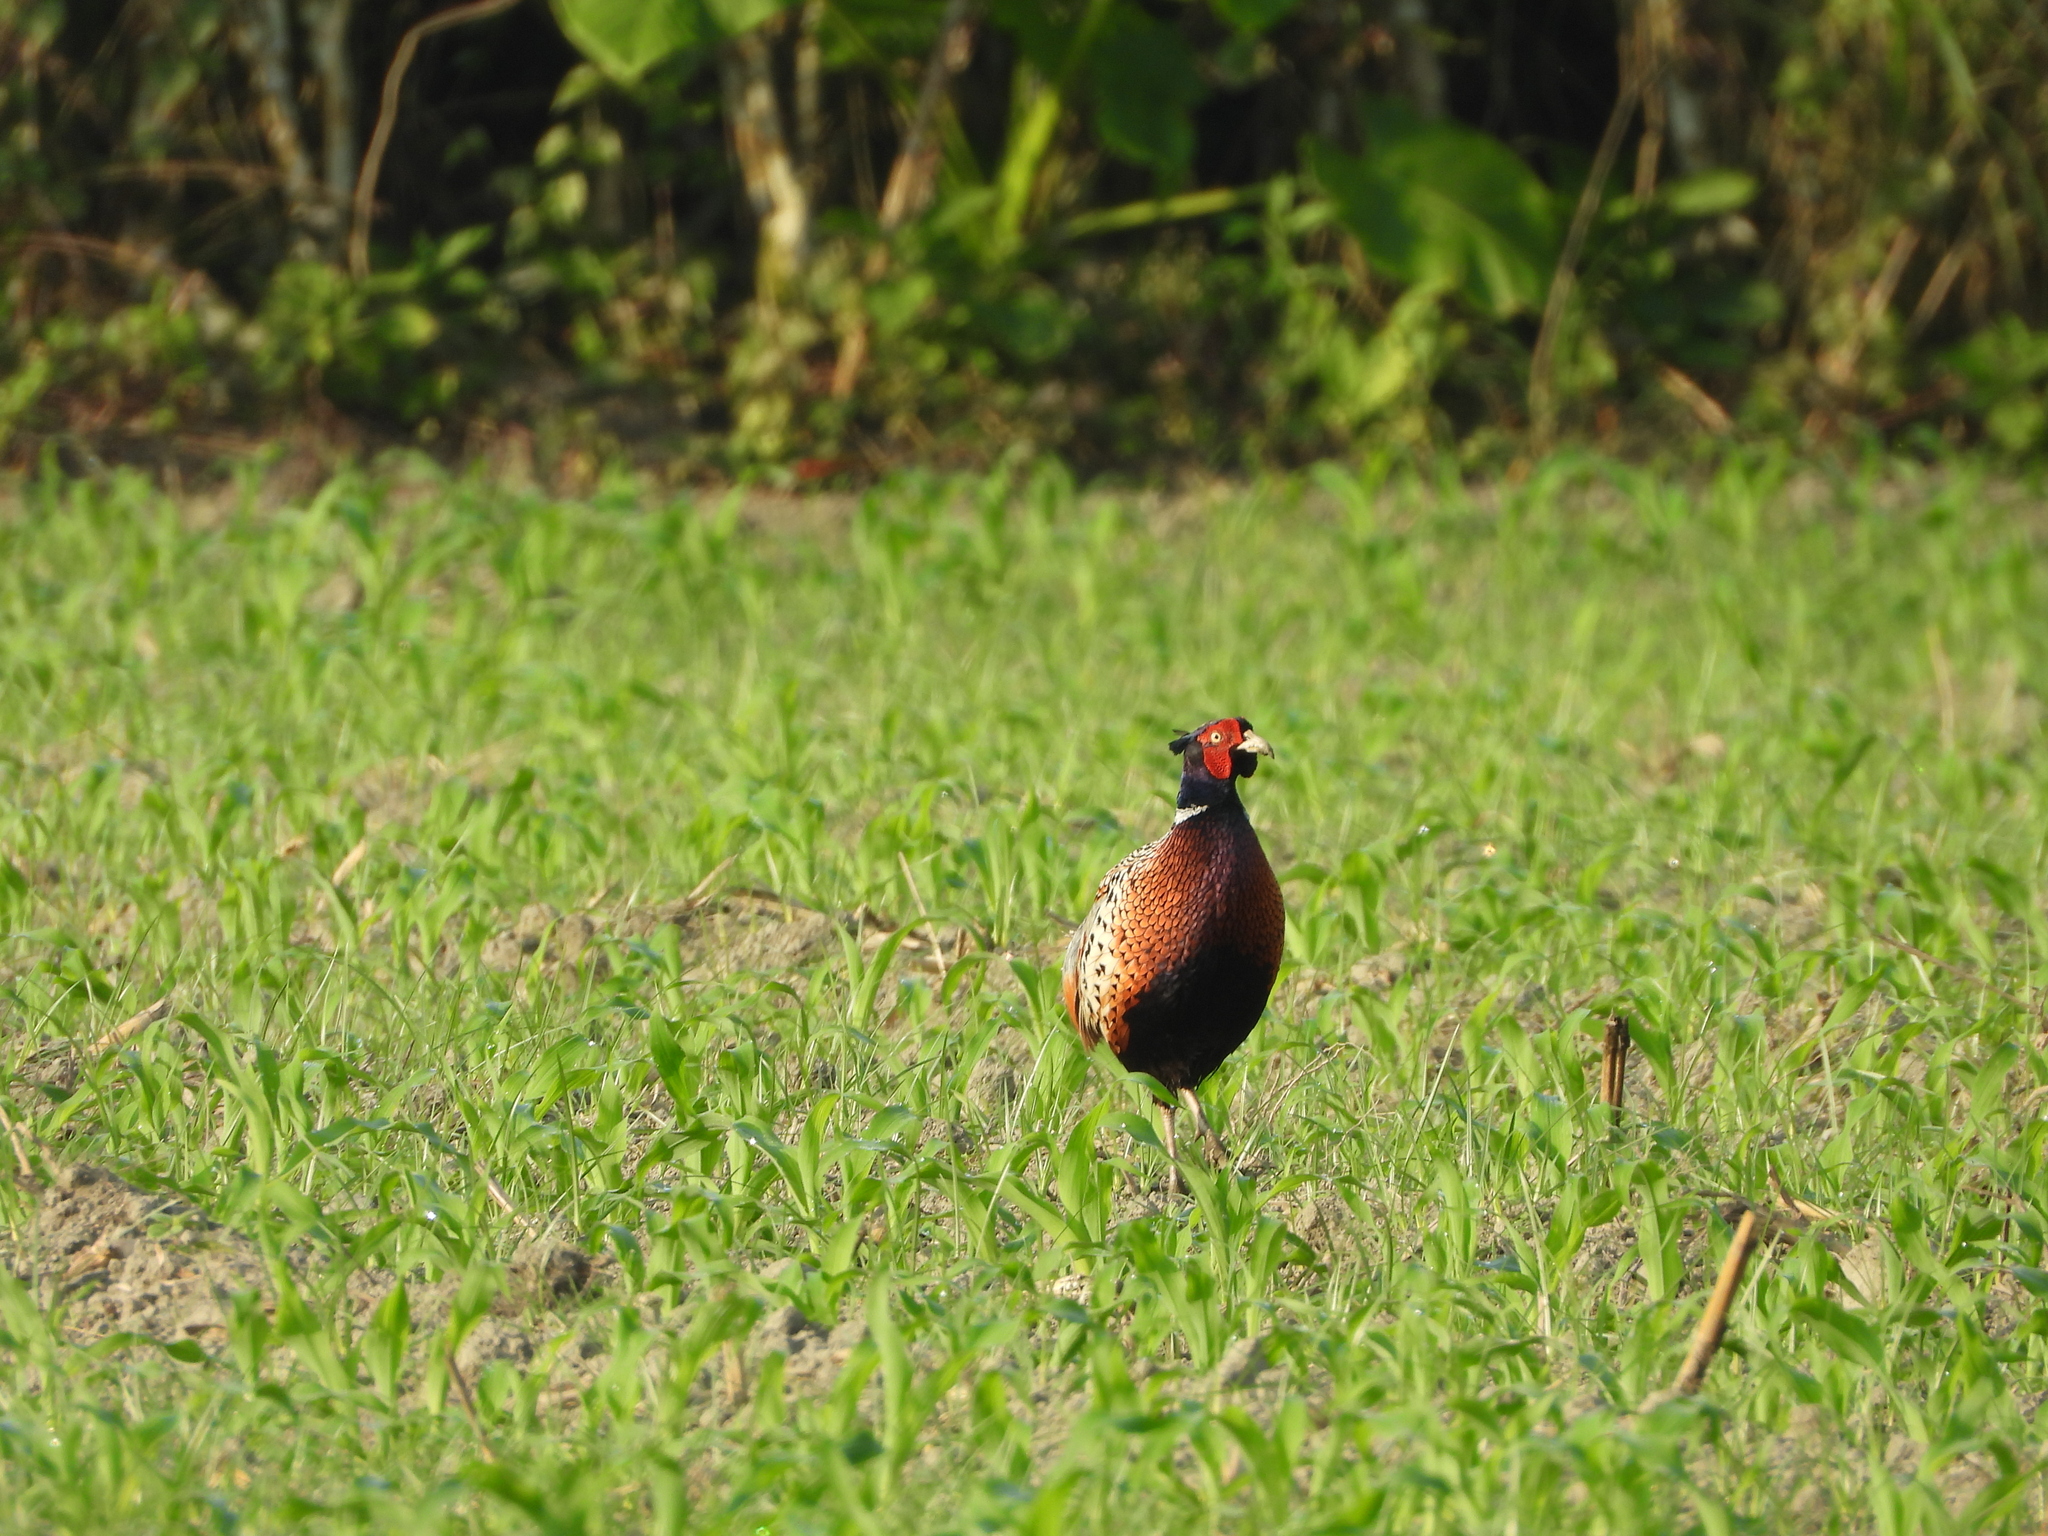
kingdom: Animalia
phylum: Chordata
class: Aves
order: Galliformes
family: Phasianidae
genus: Phasianus
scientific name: Phasianus colchicus
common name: Common pheasant
